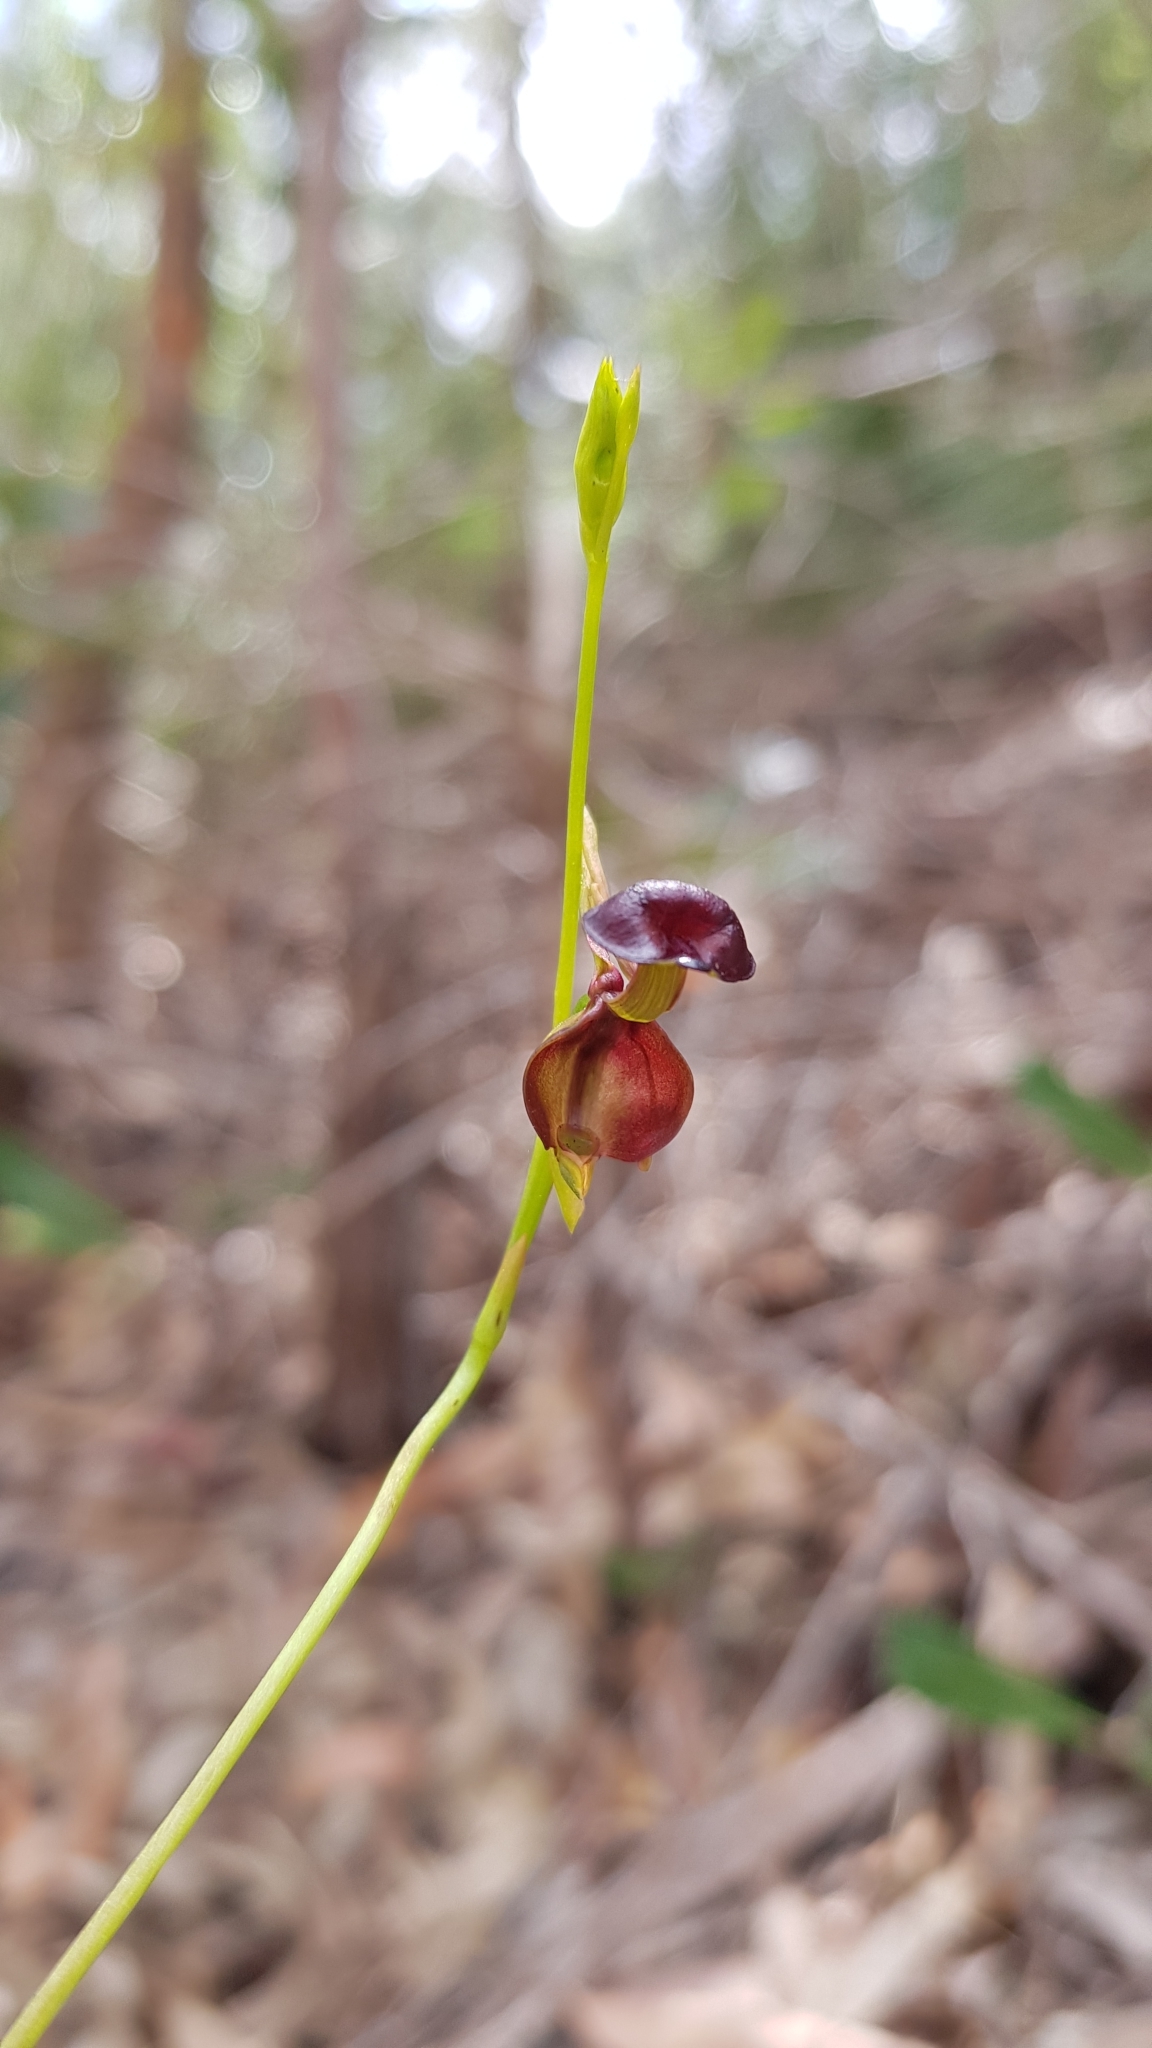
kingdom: Plantae
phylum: Tracheophyta
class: Liliopsida
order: Asparagales
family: Orchidaceae
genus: Caleana
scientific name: Caleana major
